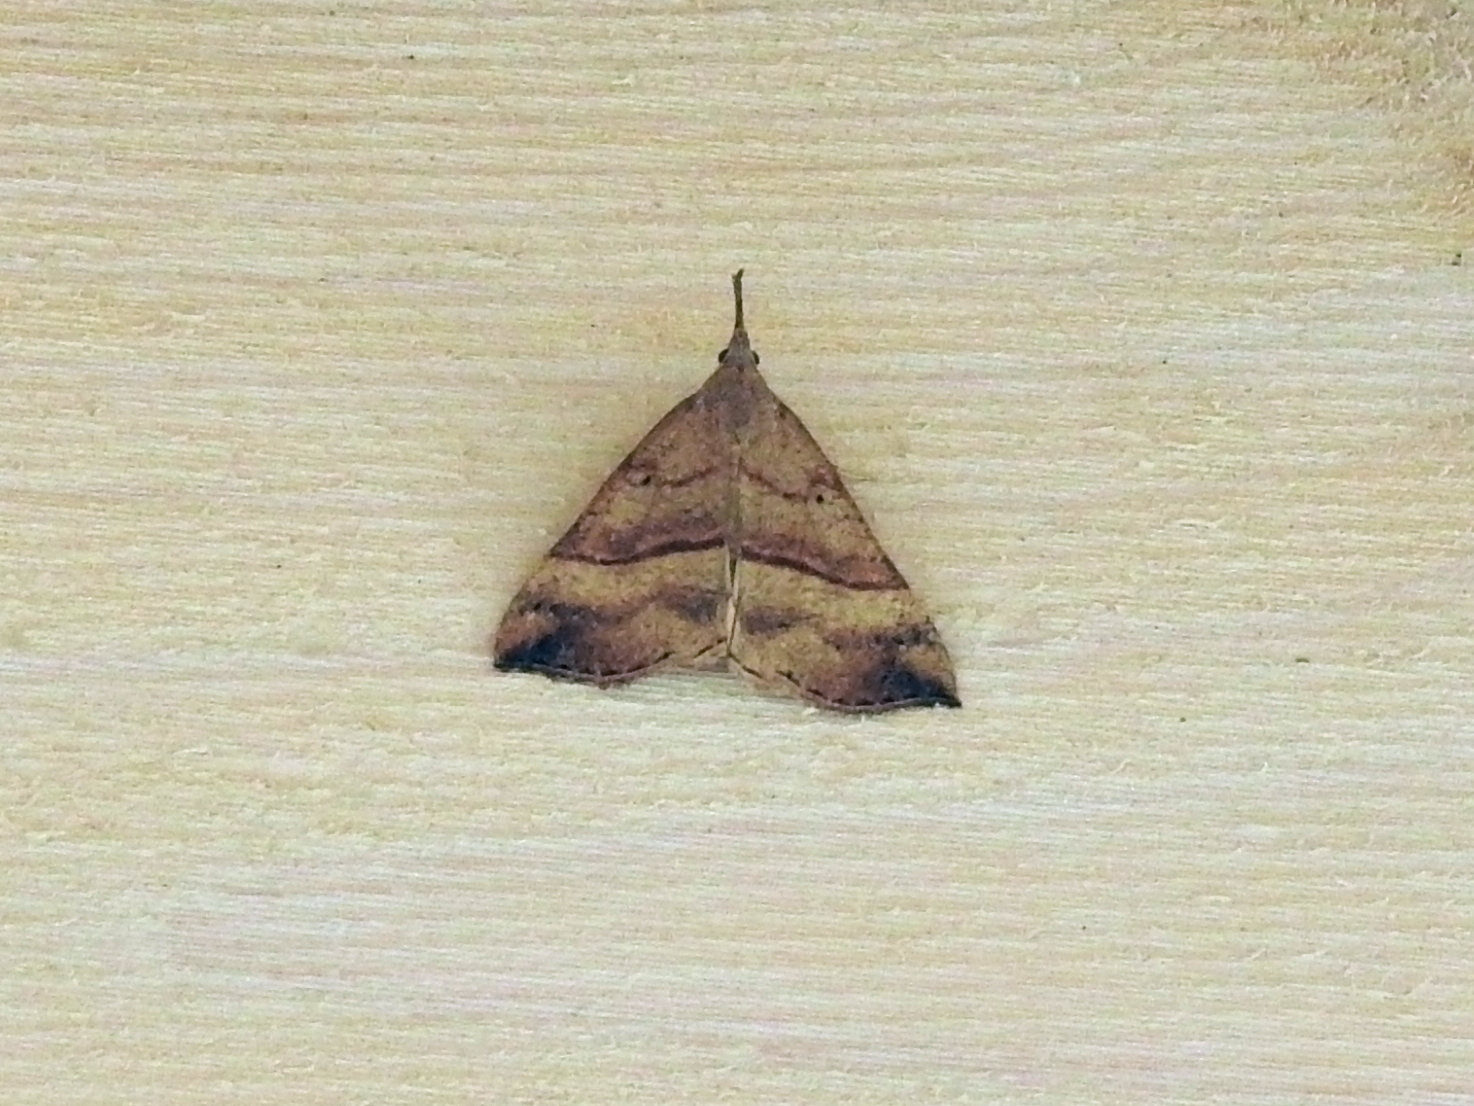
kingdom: Animalia
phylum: Arthropoda
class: Insecta
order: Lepidoptera
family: Erebidae
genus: Hypena
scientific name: Hypena proboscidalis
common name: Snout
